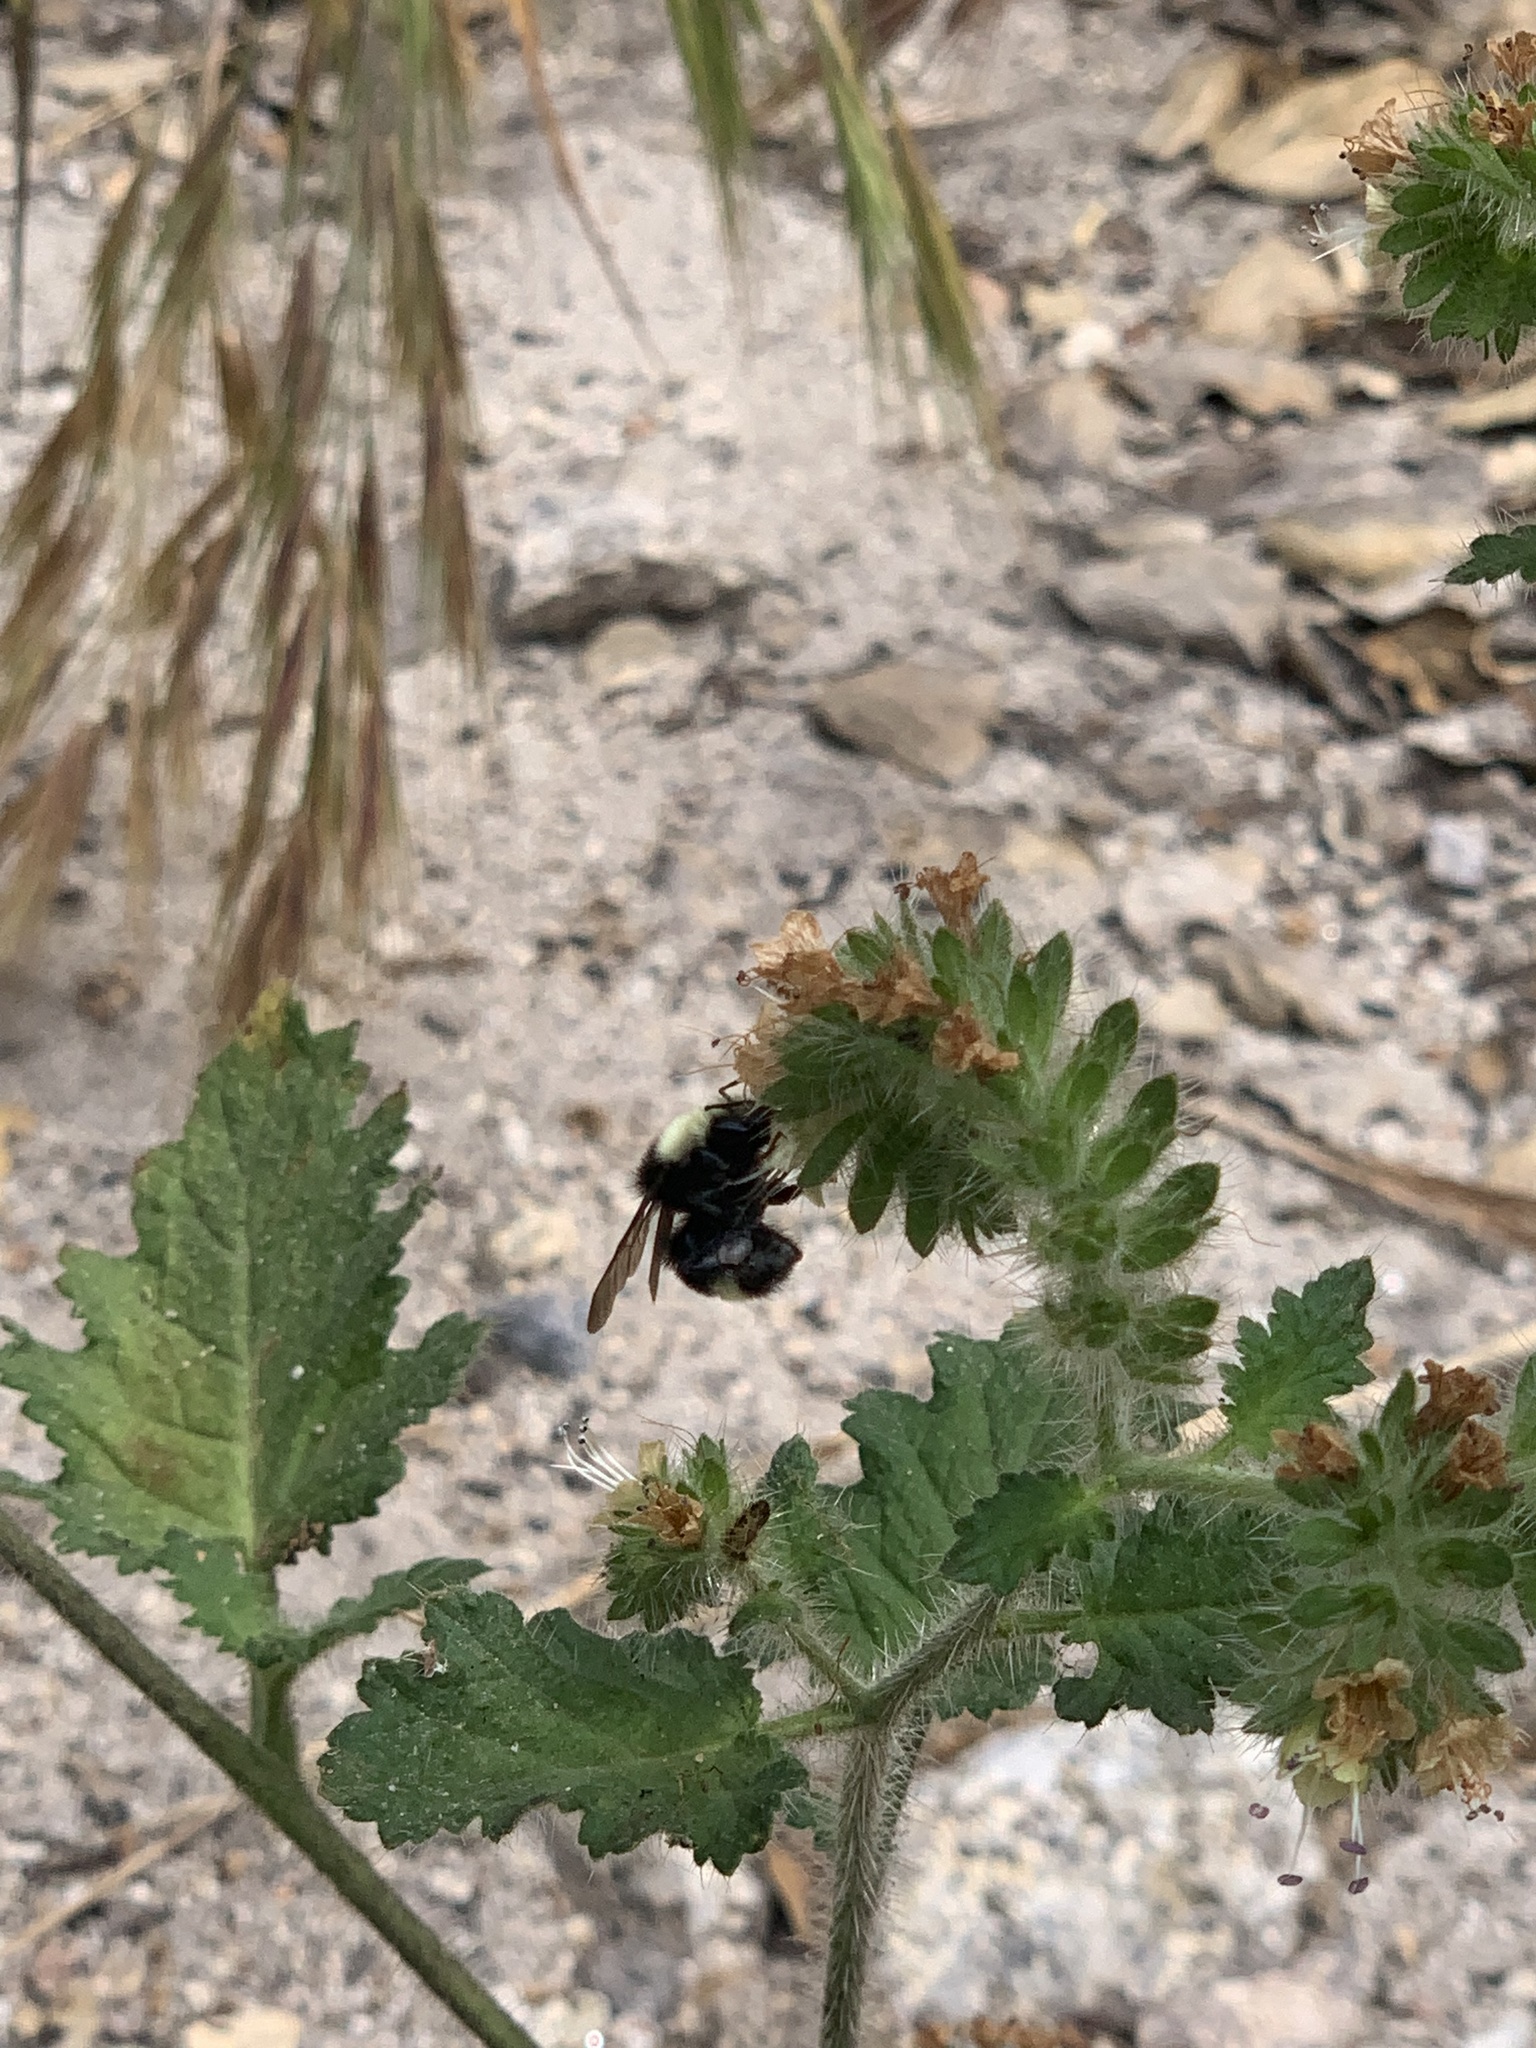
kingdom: Animalia
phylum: Arthropoda
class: Insecta
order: Hymenoptera
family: Apidae
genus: Bombus
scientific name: Bombus vandykei
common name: Van dyke bumble bee
